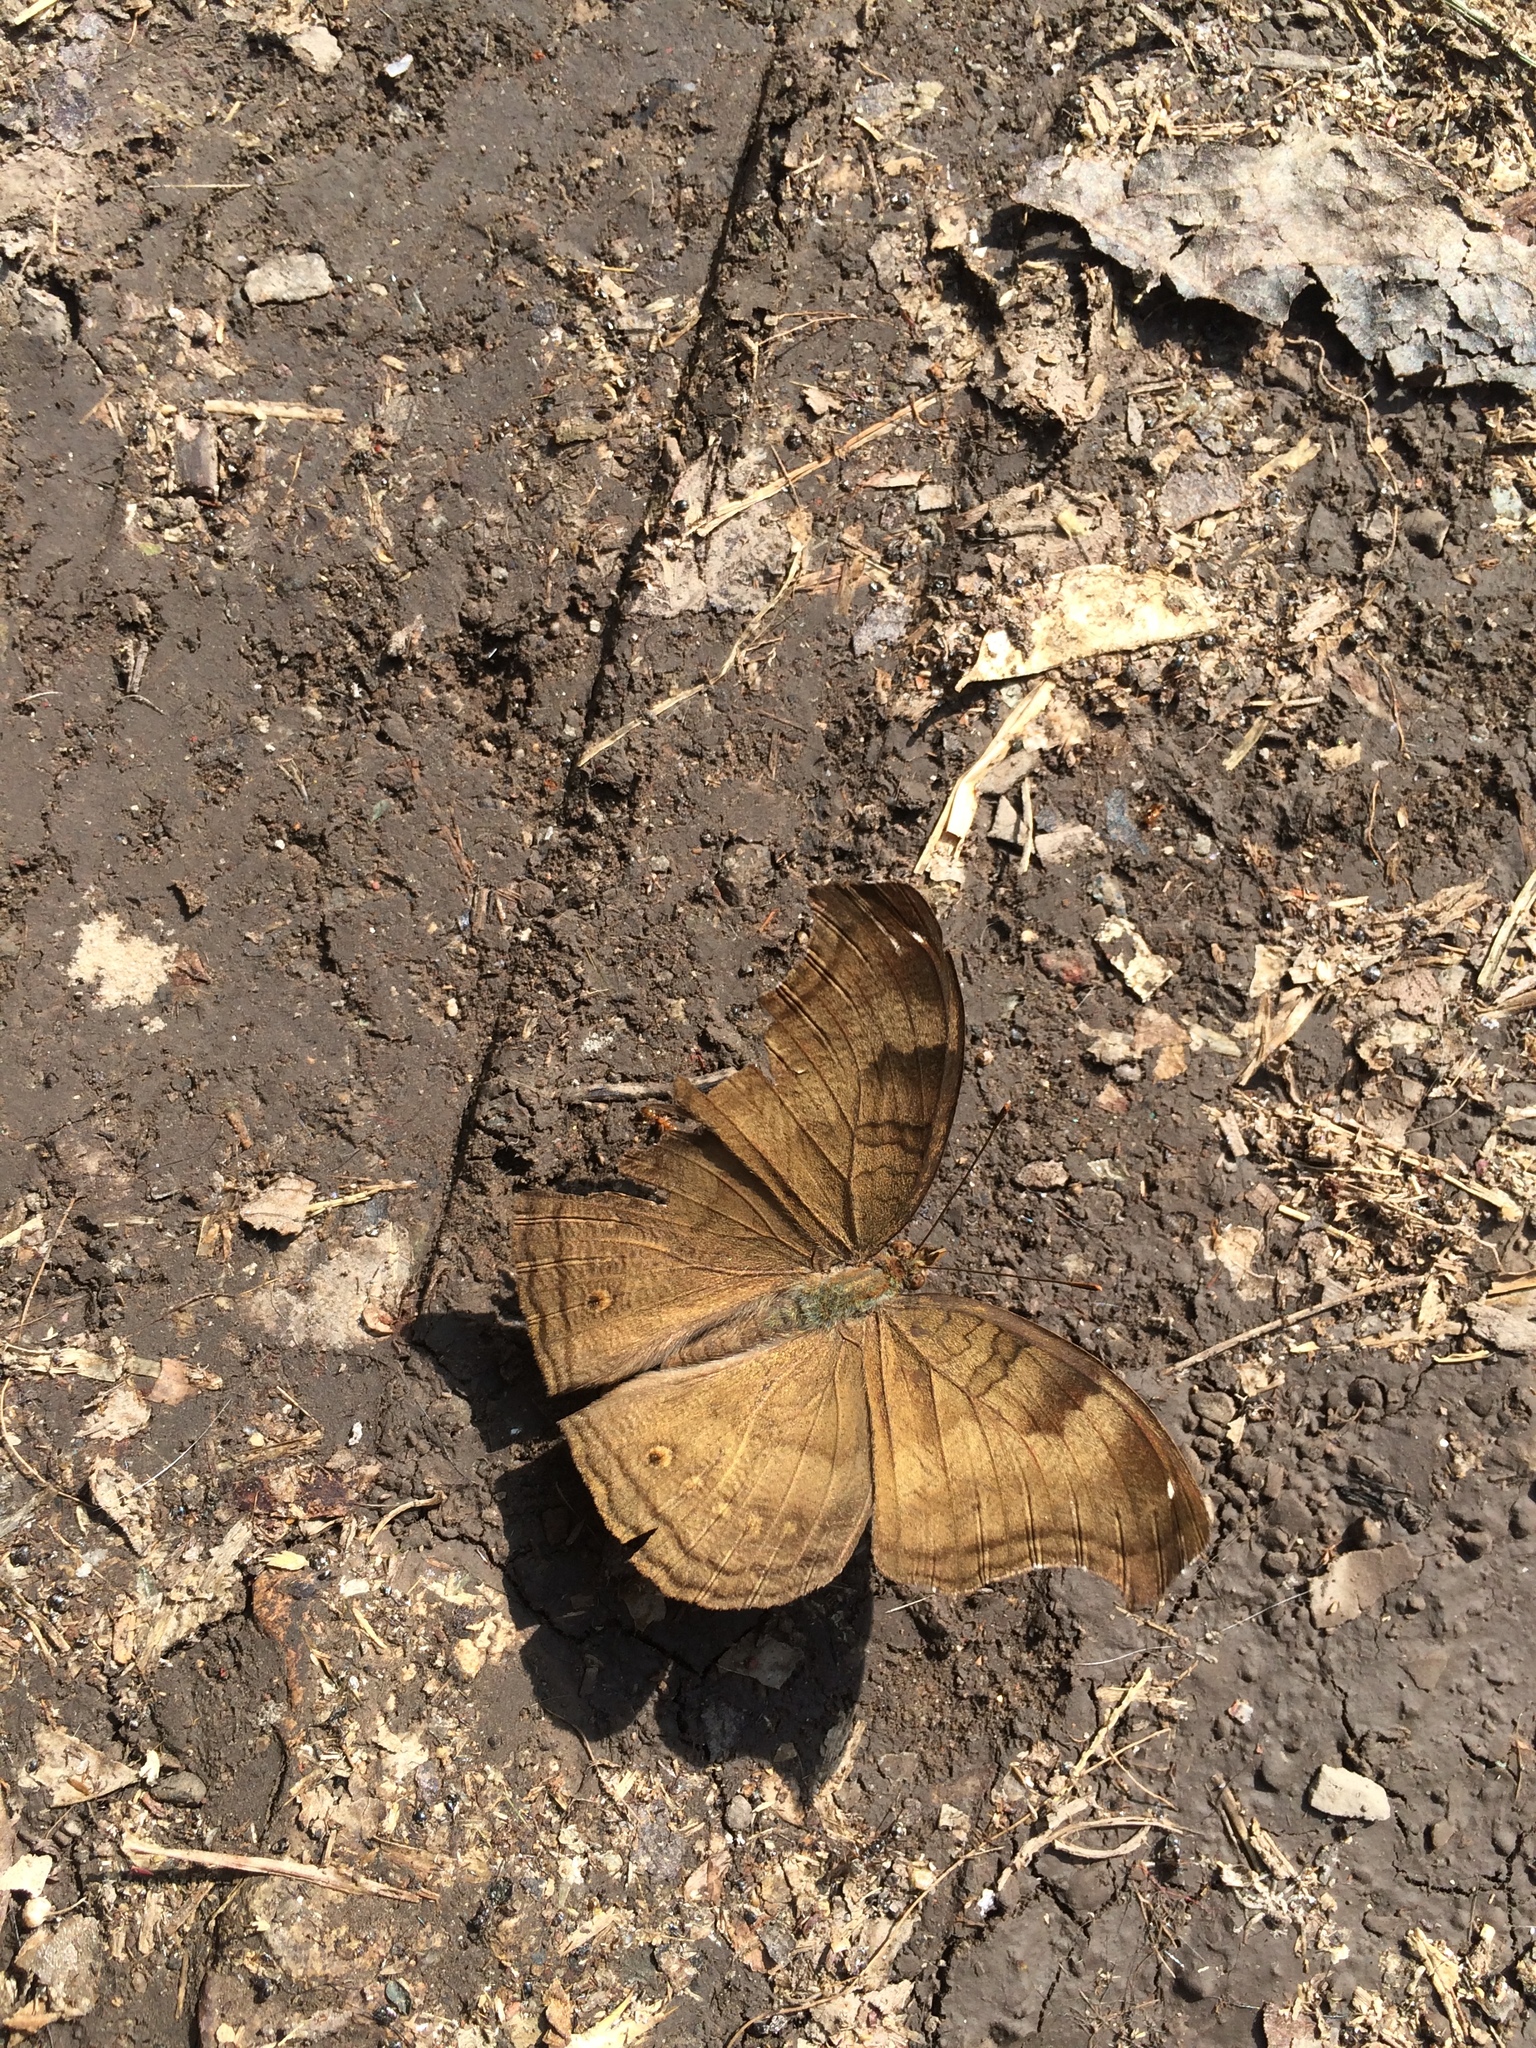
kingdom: Animalia
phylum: Arthropoda
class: Insecta
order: Lepidoptera
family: Nymphalidae
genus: Junonia
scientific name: Junonia iphita
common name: Chocolate pansy
